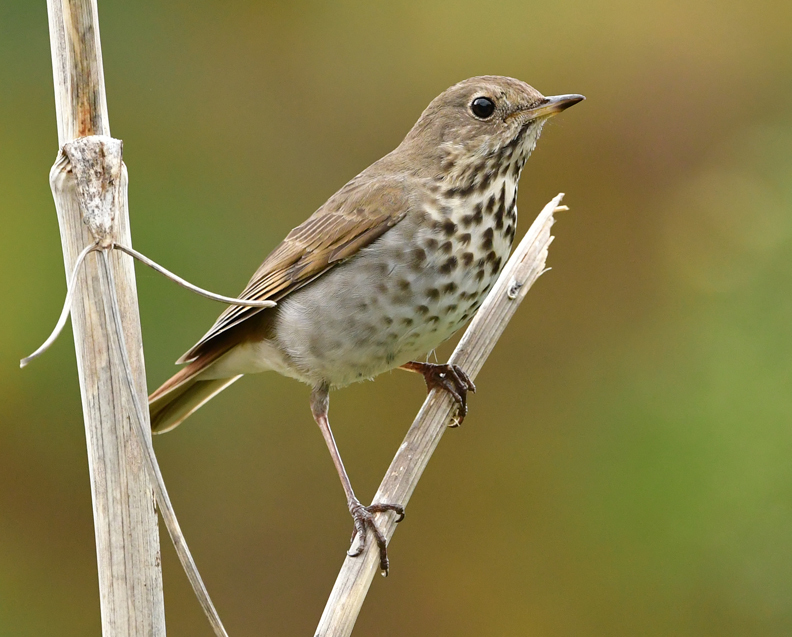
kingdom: Animalia
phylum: Chordata
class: Aves
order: Passeriformes
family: Turdidae
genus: Catharus
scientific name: Catharus guttatus
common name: Hermit thrush
